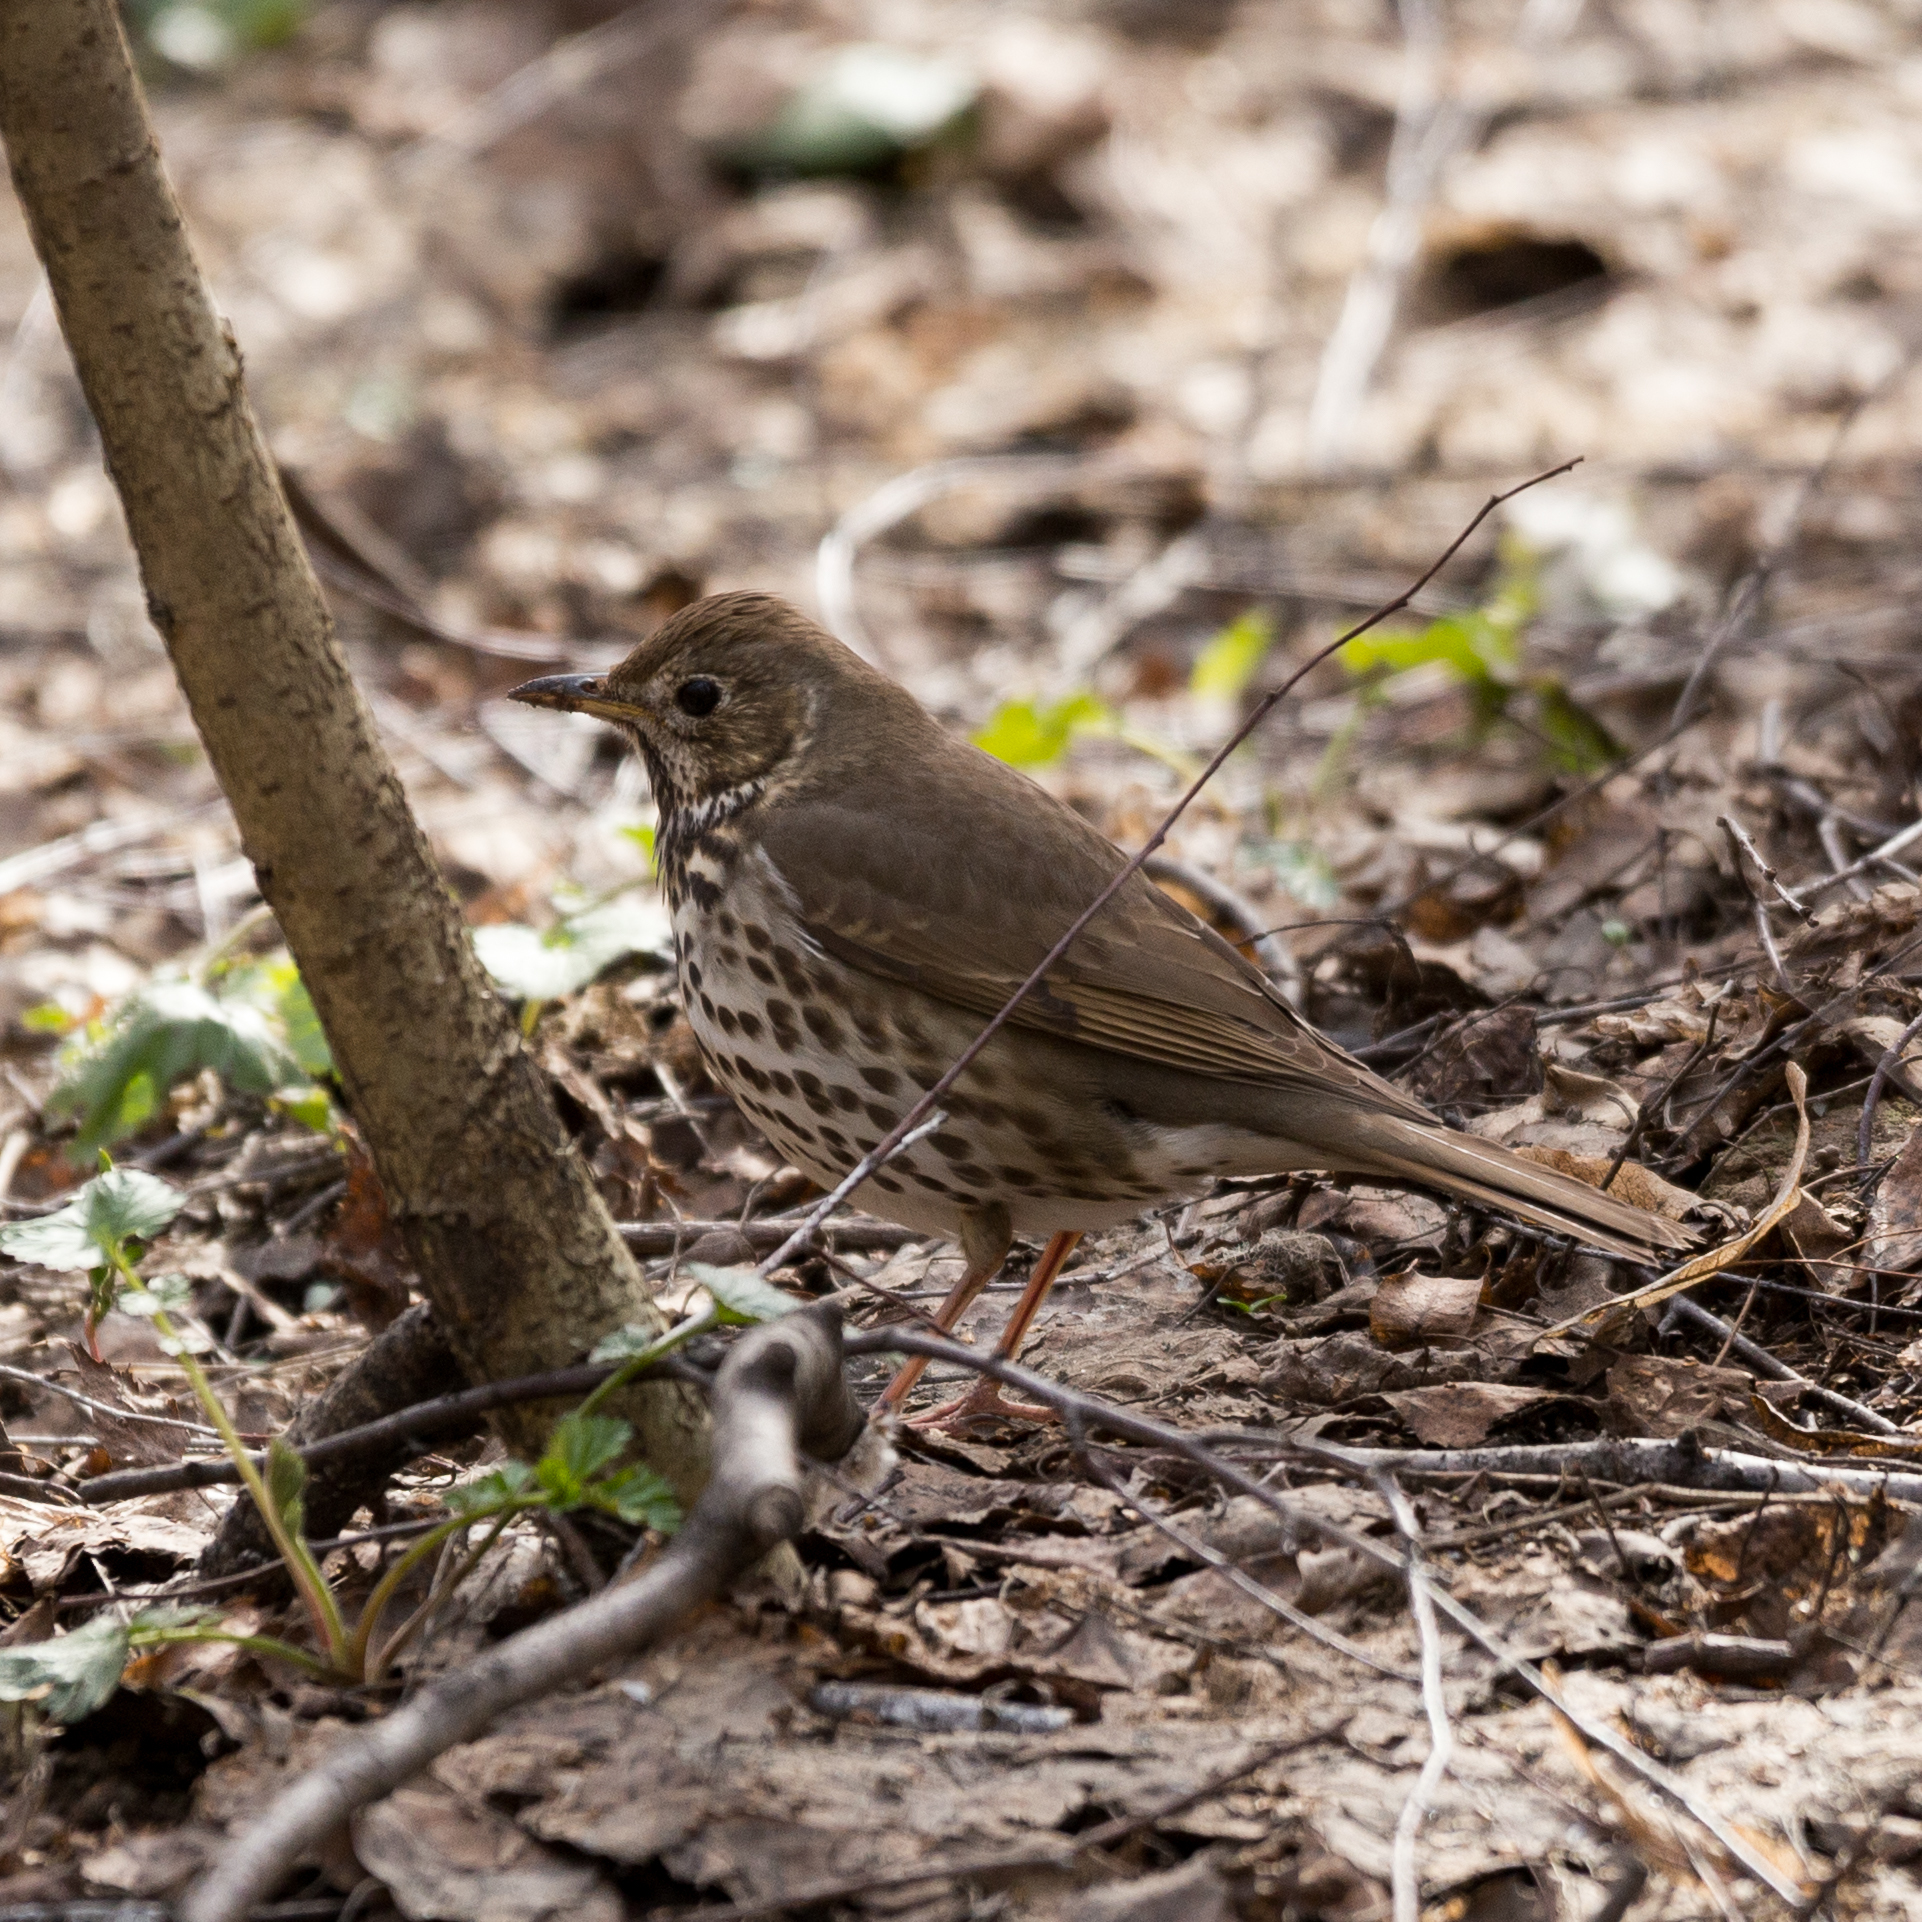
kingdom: Animalia
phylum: Chordata
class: Aves
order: Passeriformes
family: Turdidae
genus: Turdus
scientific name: Turdus philomelos
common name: Song thrush
